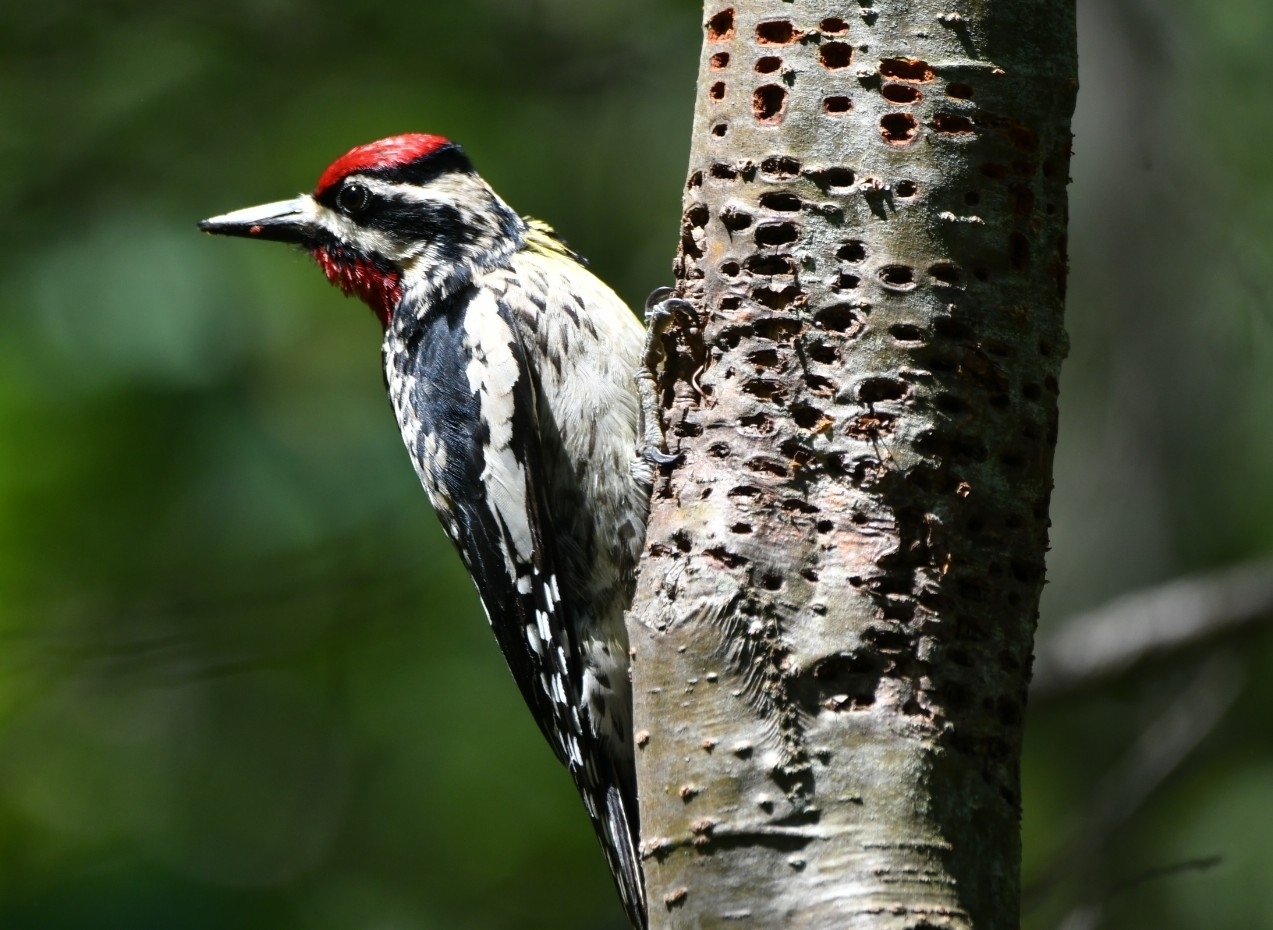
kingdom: Animalia
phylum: Chordata
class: Aves
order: Piciformes
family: Picidae
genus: Sphyrapicus
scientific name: Sphyrapicus varius
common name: Yellow-bellied sapsucker
